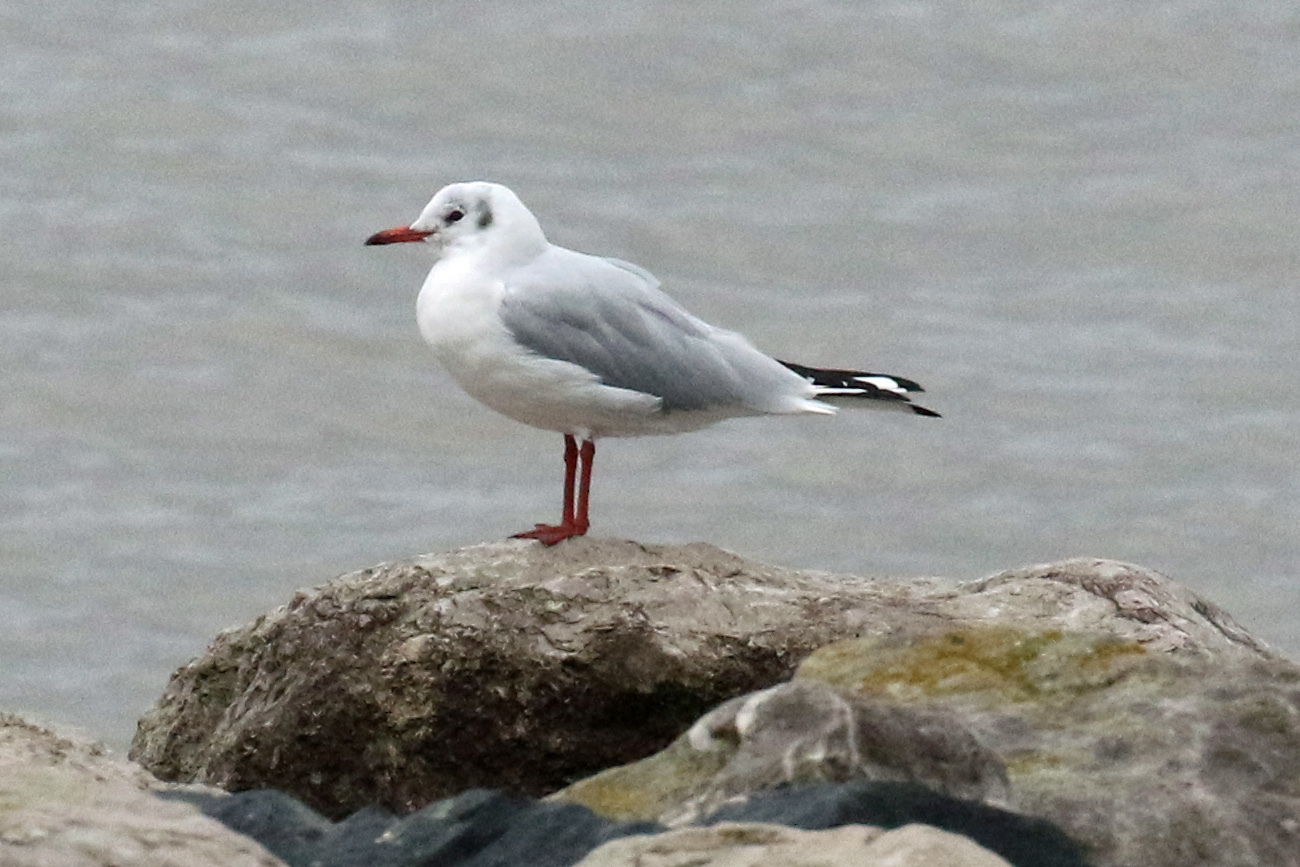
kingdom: Animalia
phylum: Chordata
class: Aves
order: Charadriiformes
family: Laridae
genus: Chroicocephalus
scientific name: Chroicocephalus ridibundus
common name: Black-headed gull
